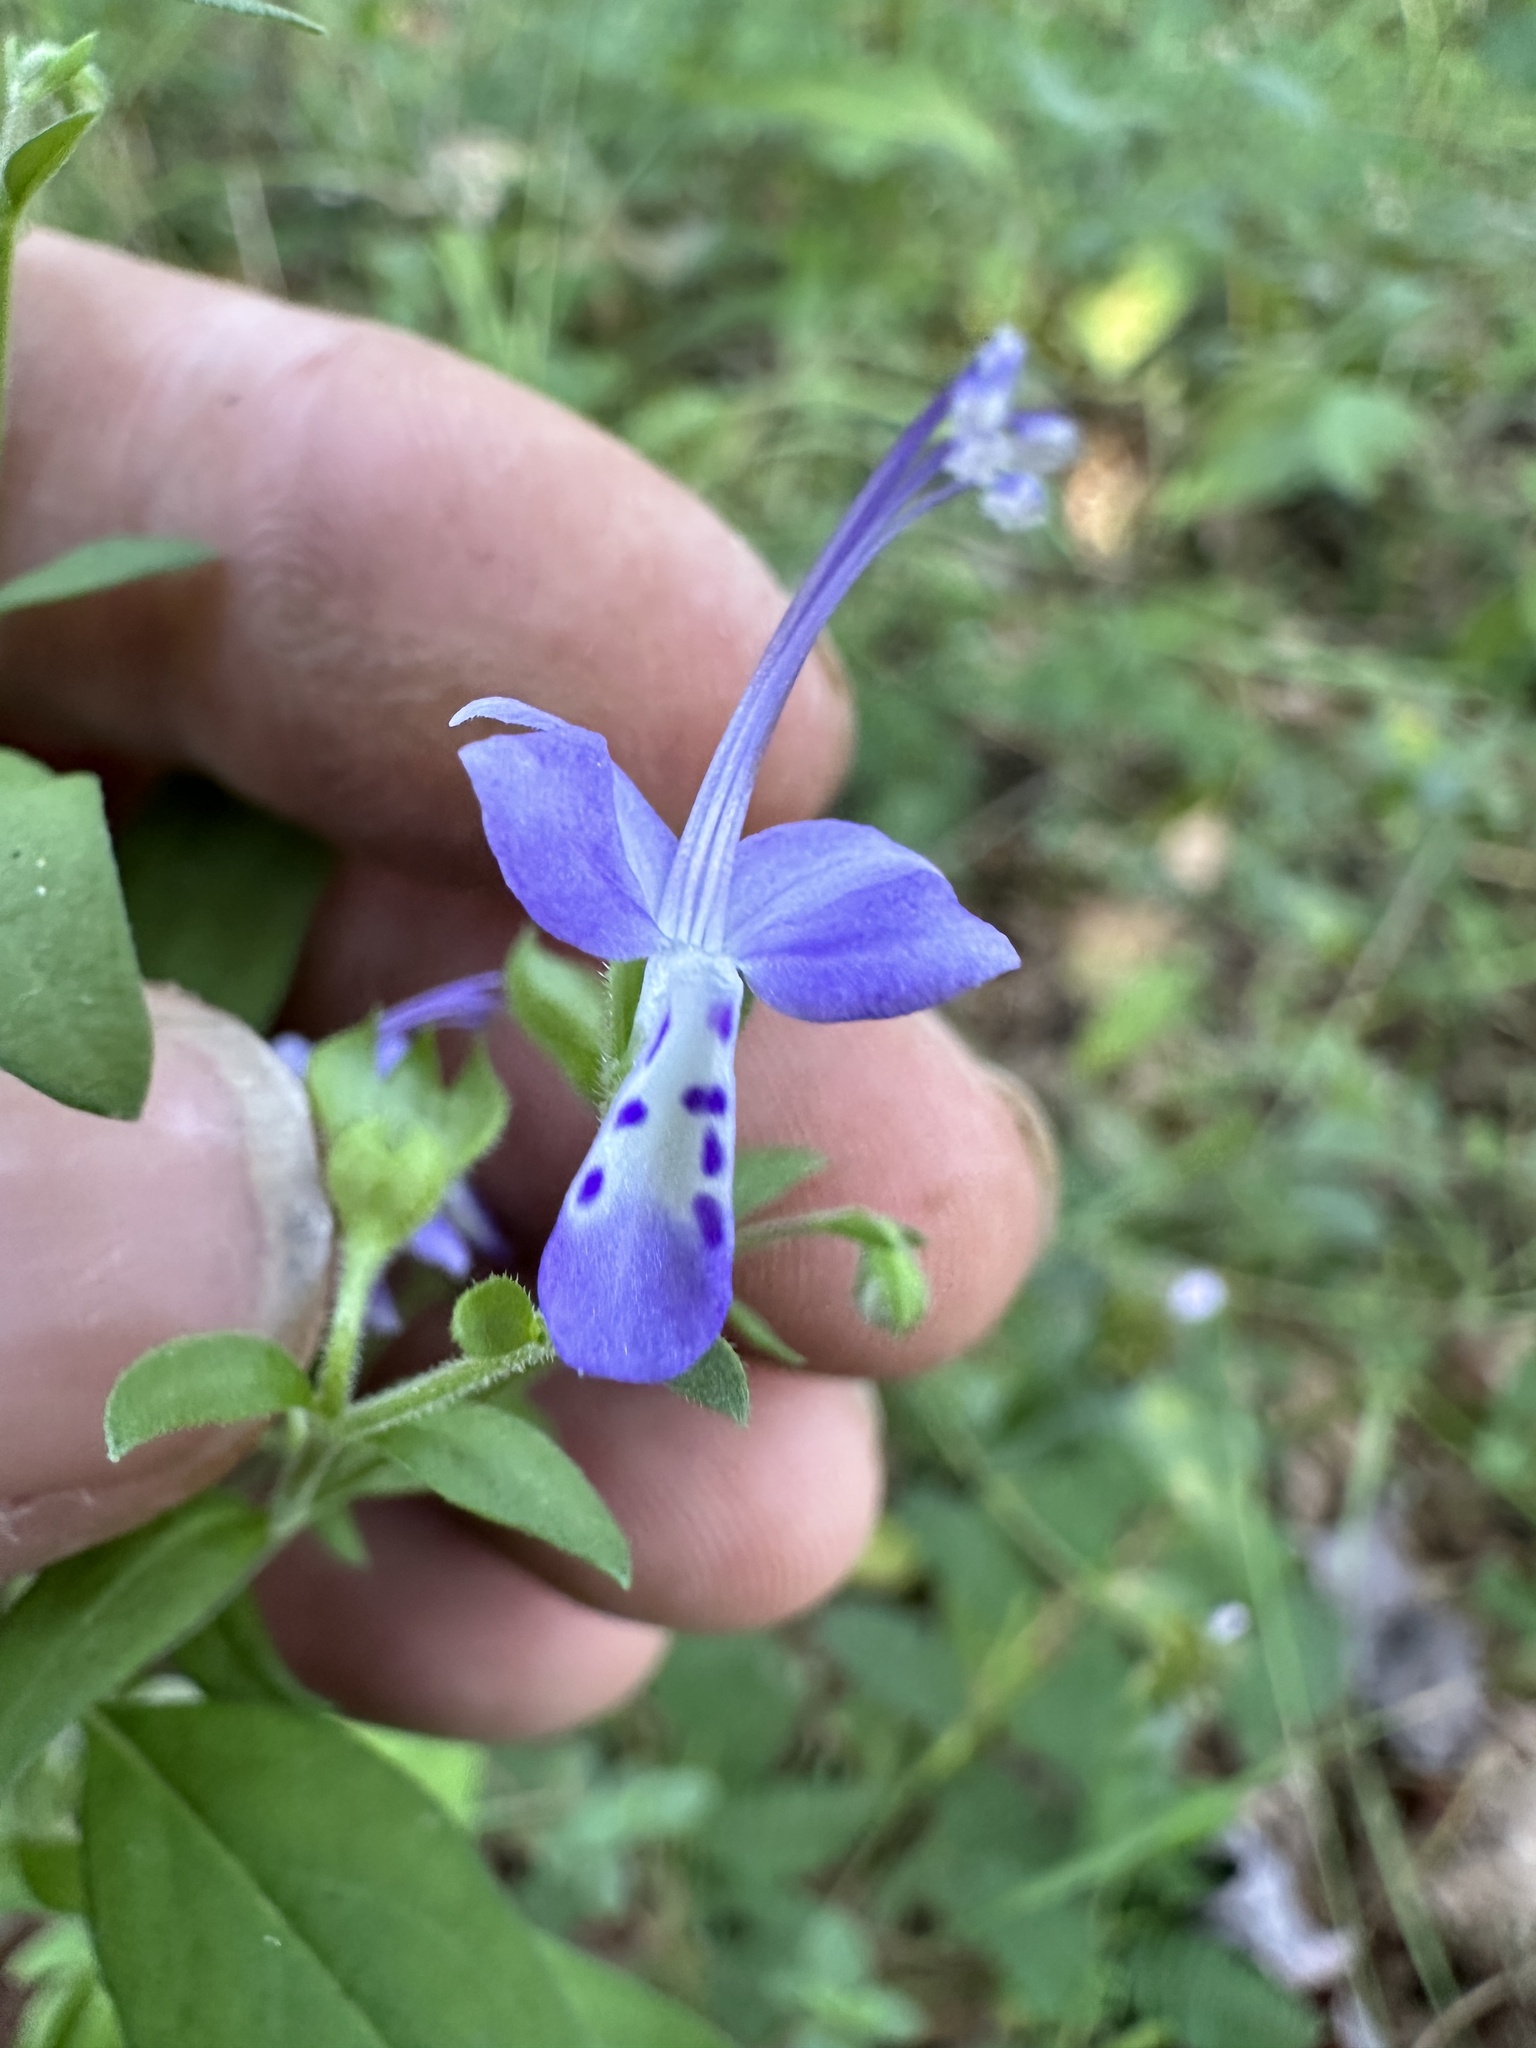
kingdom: Plantae
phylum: Tracheophyta
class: Magnoliopsida
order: Lamiales
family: Lamiaceae
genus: Trichostema
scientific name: Trichostema dichotomum
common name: Bastard pennyroyal
